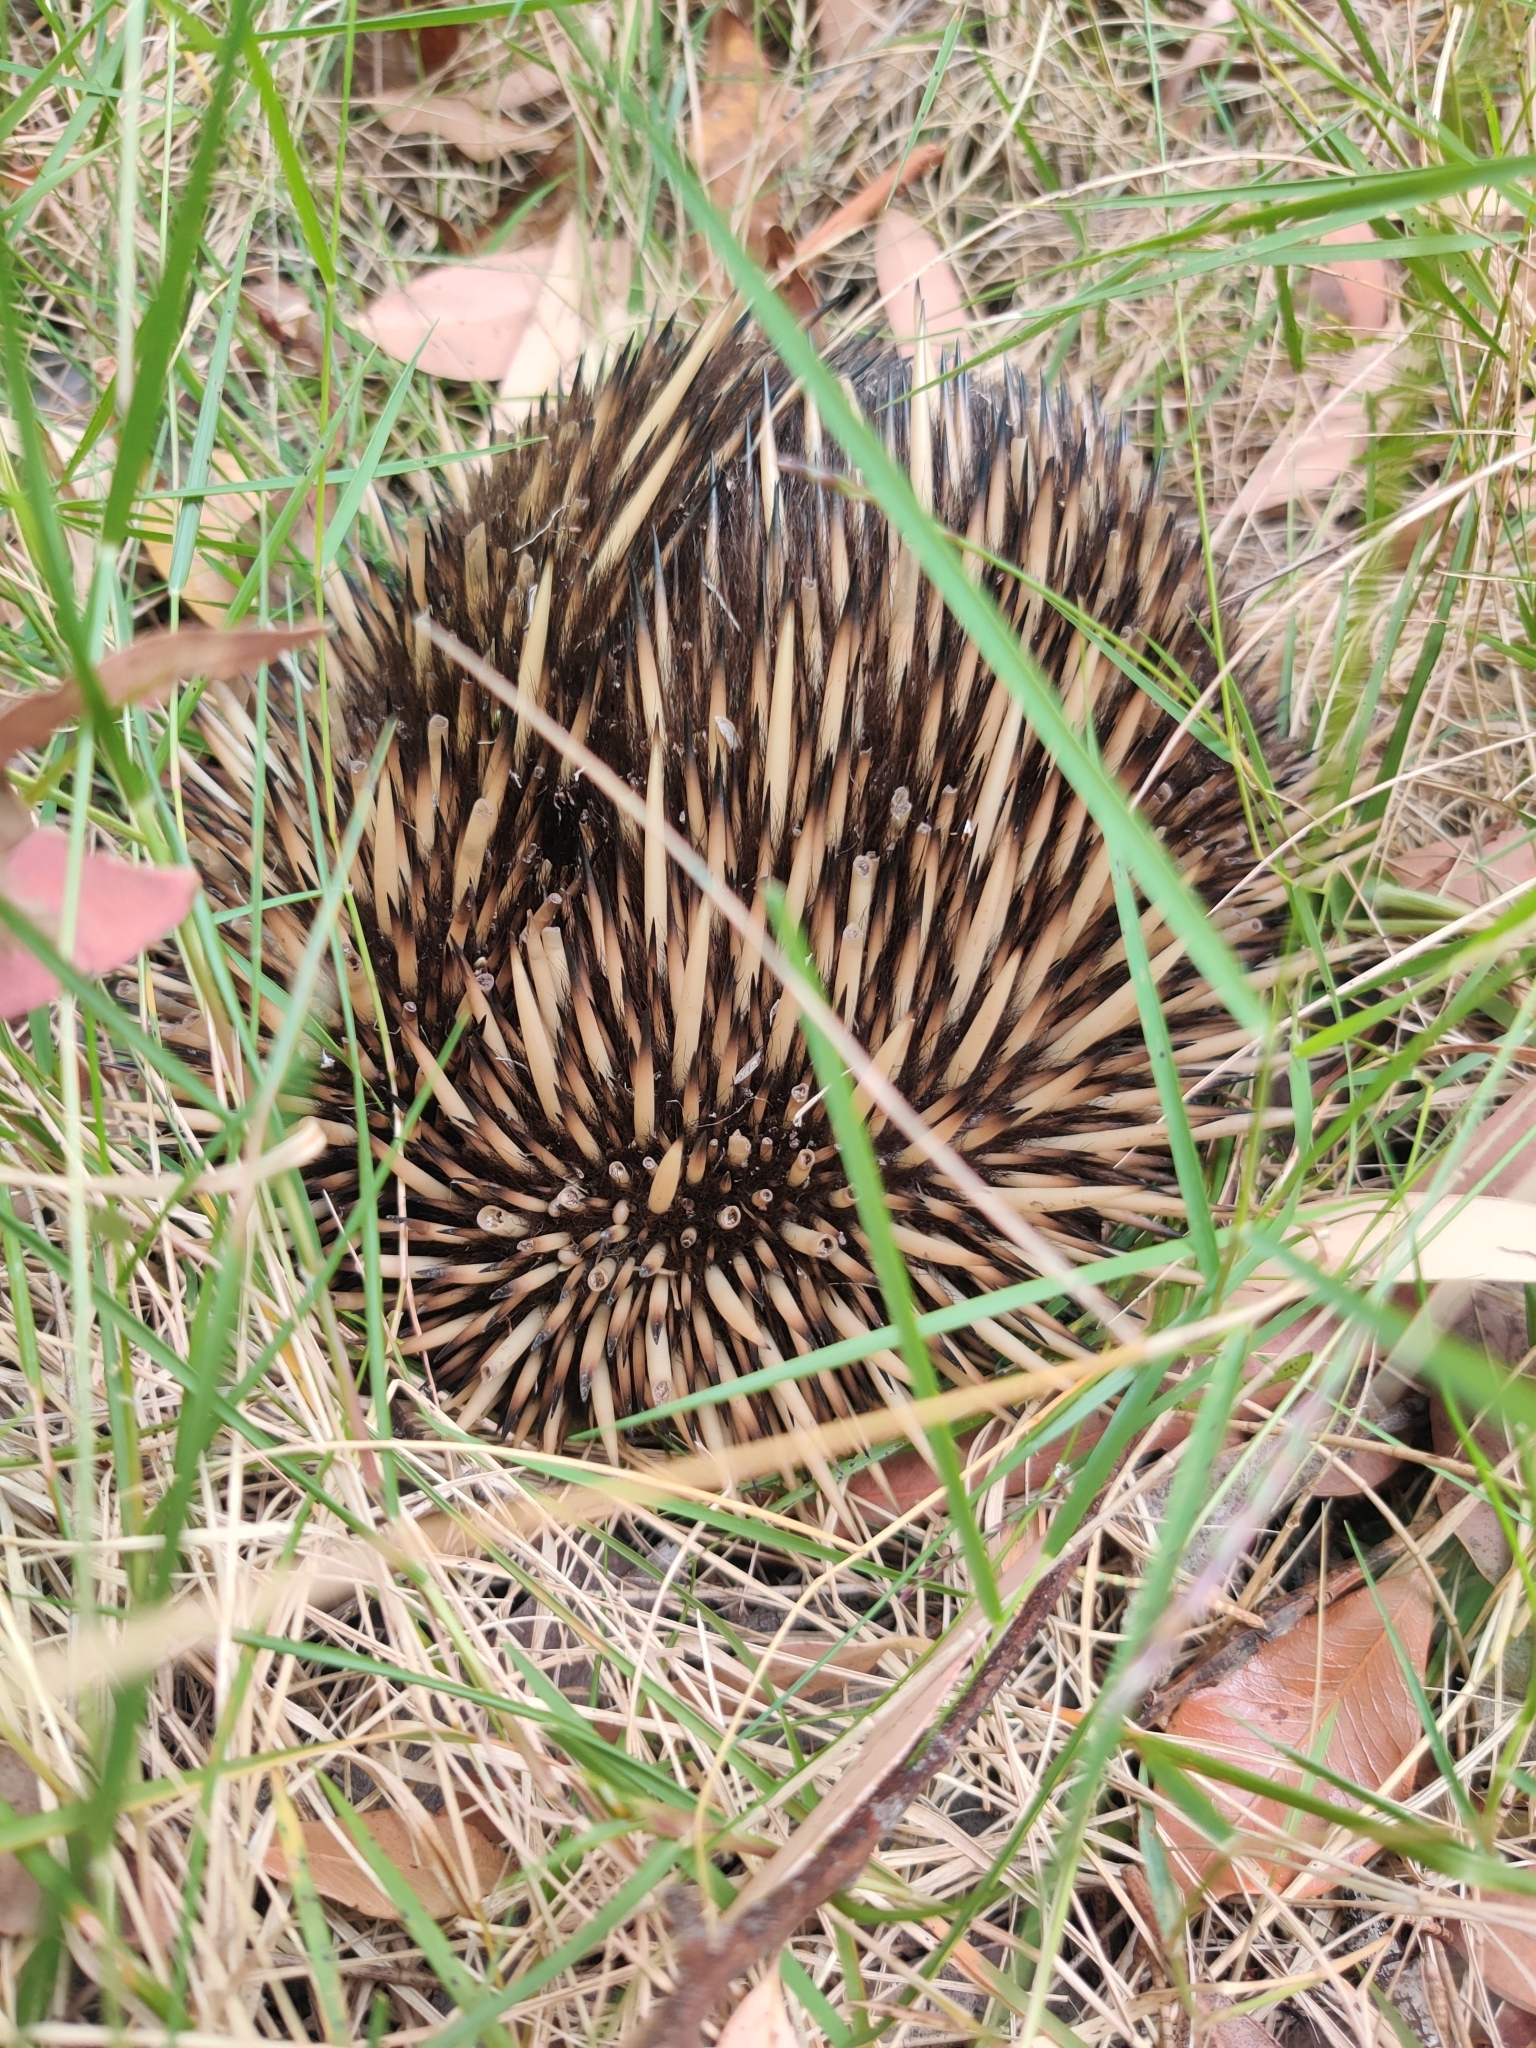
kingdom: Animalia
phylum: Chordata
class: Mammalia
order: Monotremata
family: Tachyglossidae
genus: Tachyglossus
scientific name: Tachyglossus aculeatus
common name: Short-beaked echidna
